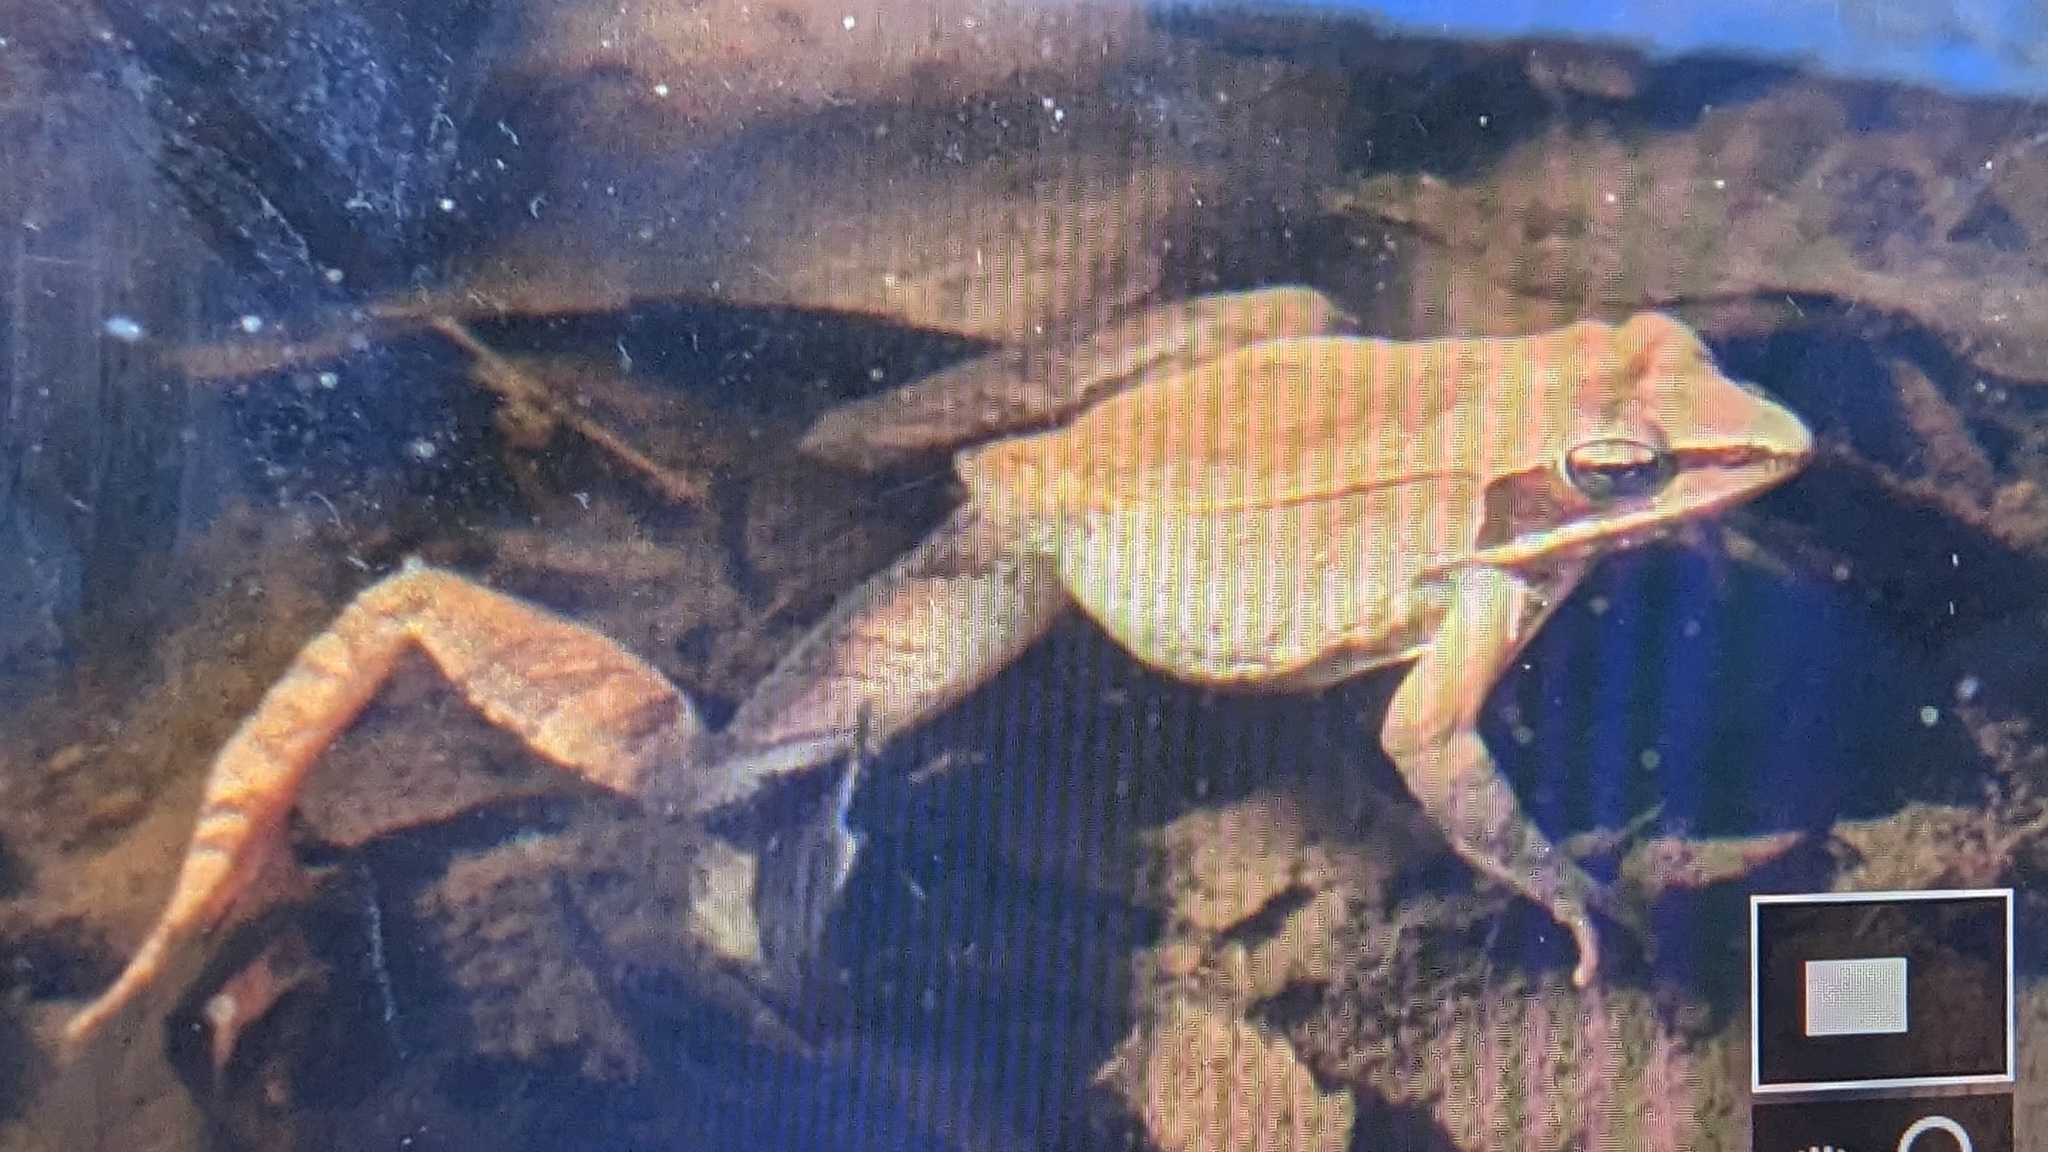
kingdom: Animalia
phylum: Chordata
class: Amphibia
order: Anura
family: Ranidae
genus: Lithobates
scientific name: Lithobates sylvaticus
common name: Wood frog
